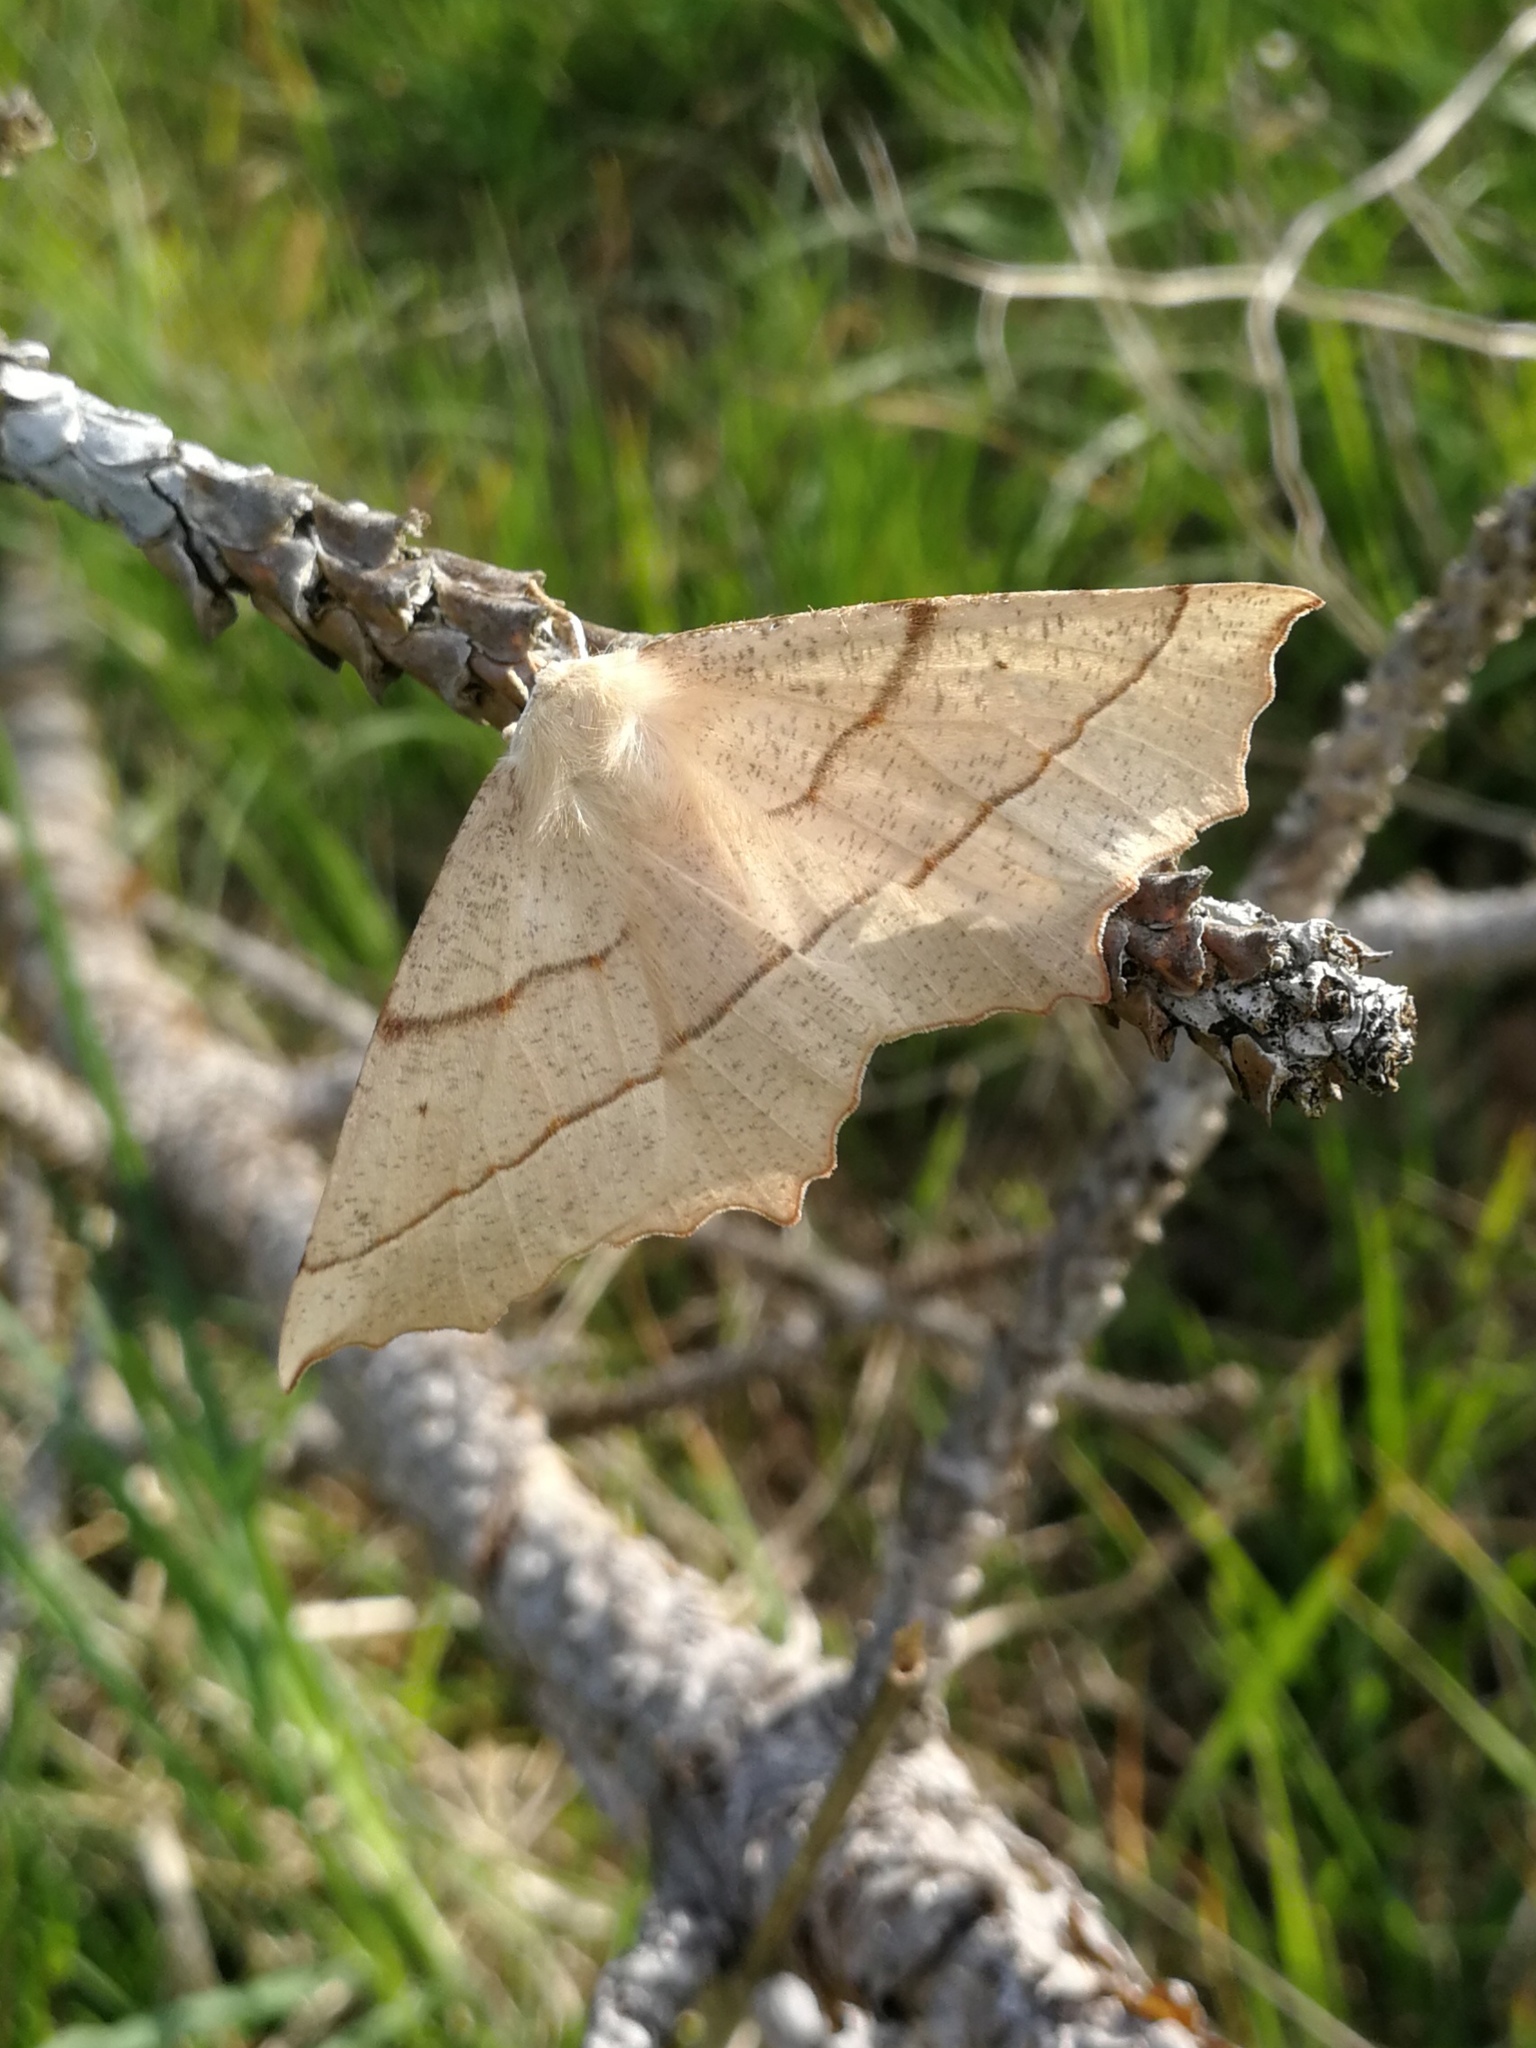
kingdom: Animalia
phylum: Arthropoda
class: Insecta
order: Lepidoptera
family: Geometridae
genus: Gerinia
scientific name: Gerinia honoraria
